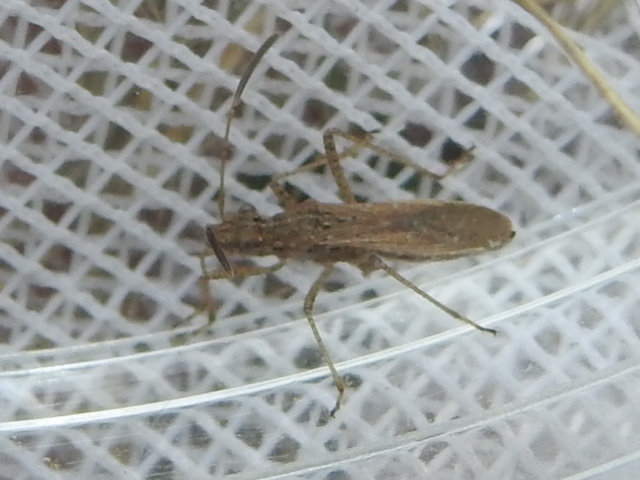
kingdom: Animalia
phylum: Arthropoda
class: Insecta
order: Hemiptera
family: Alydidae
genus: Esperanza
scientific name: Esperanza texana
